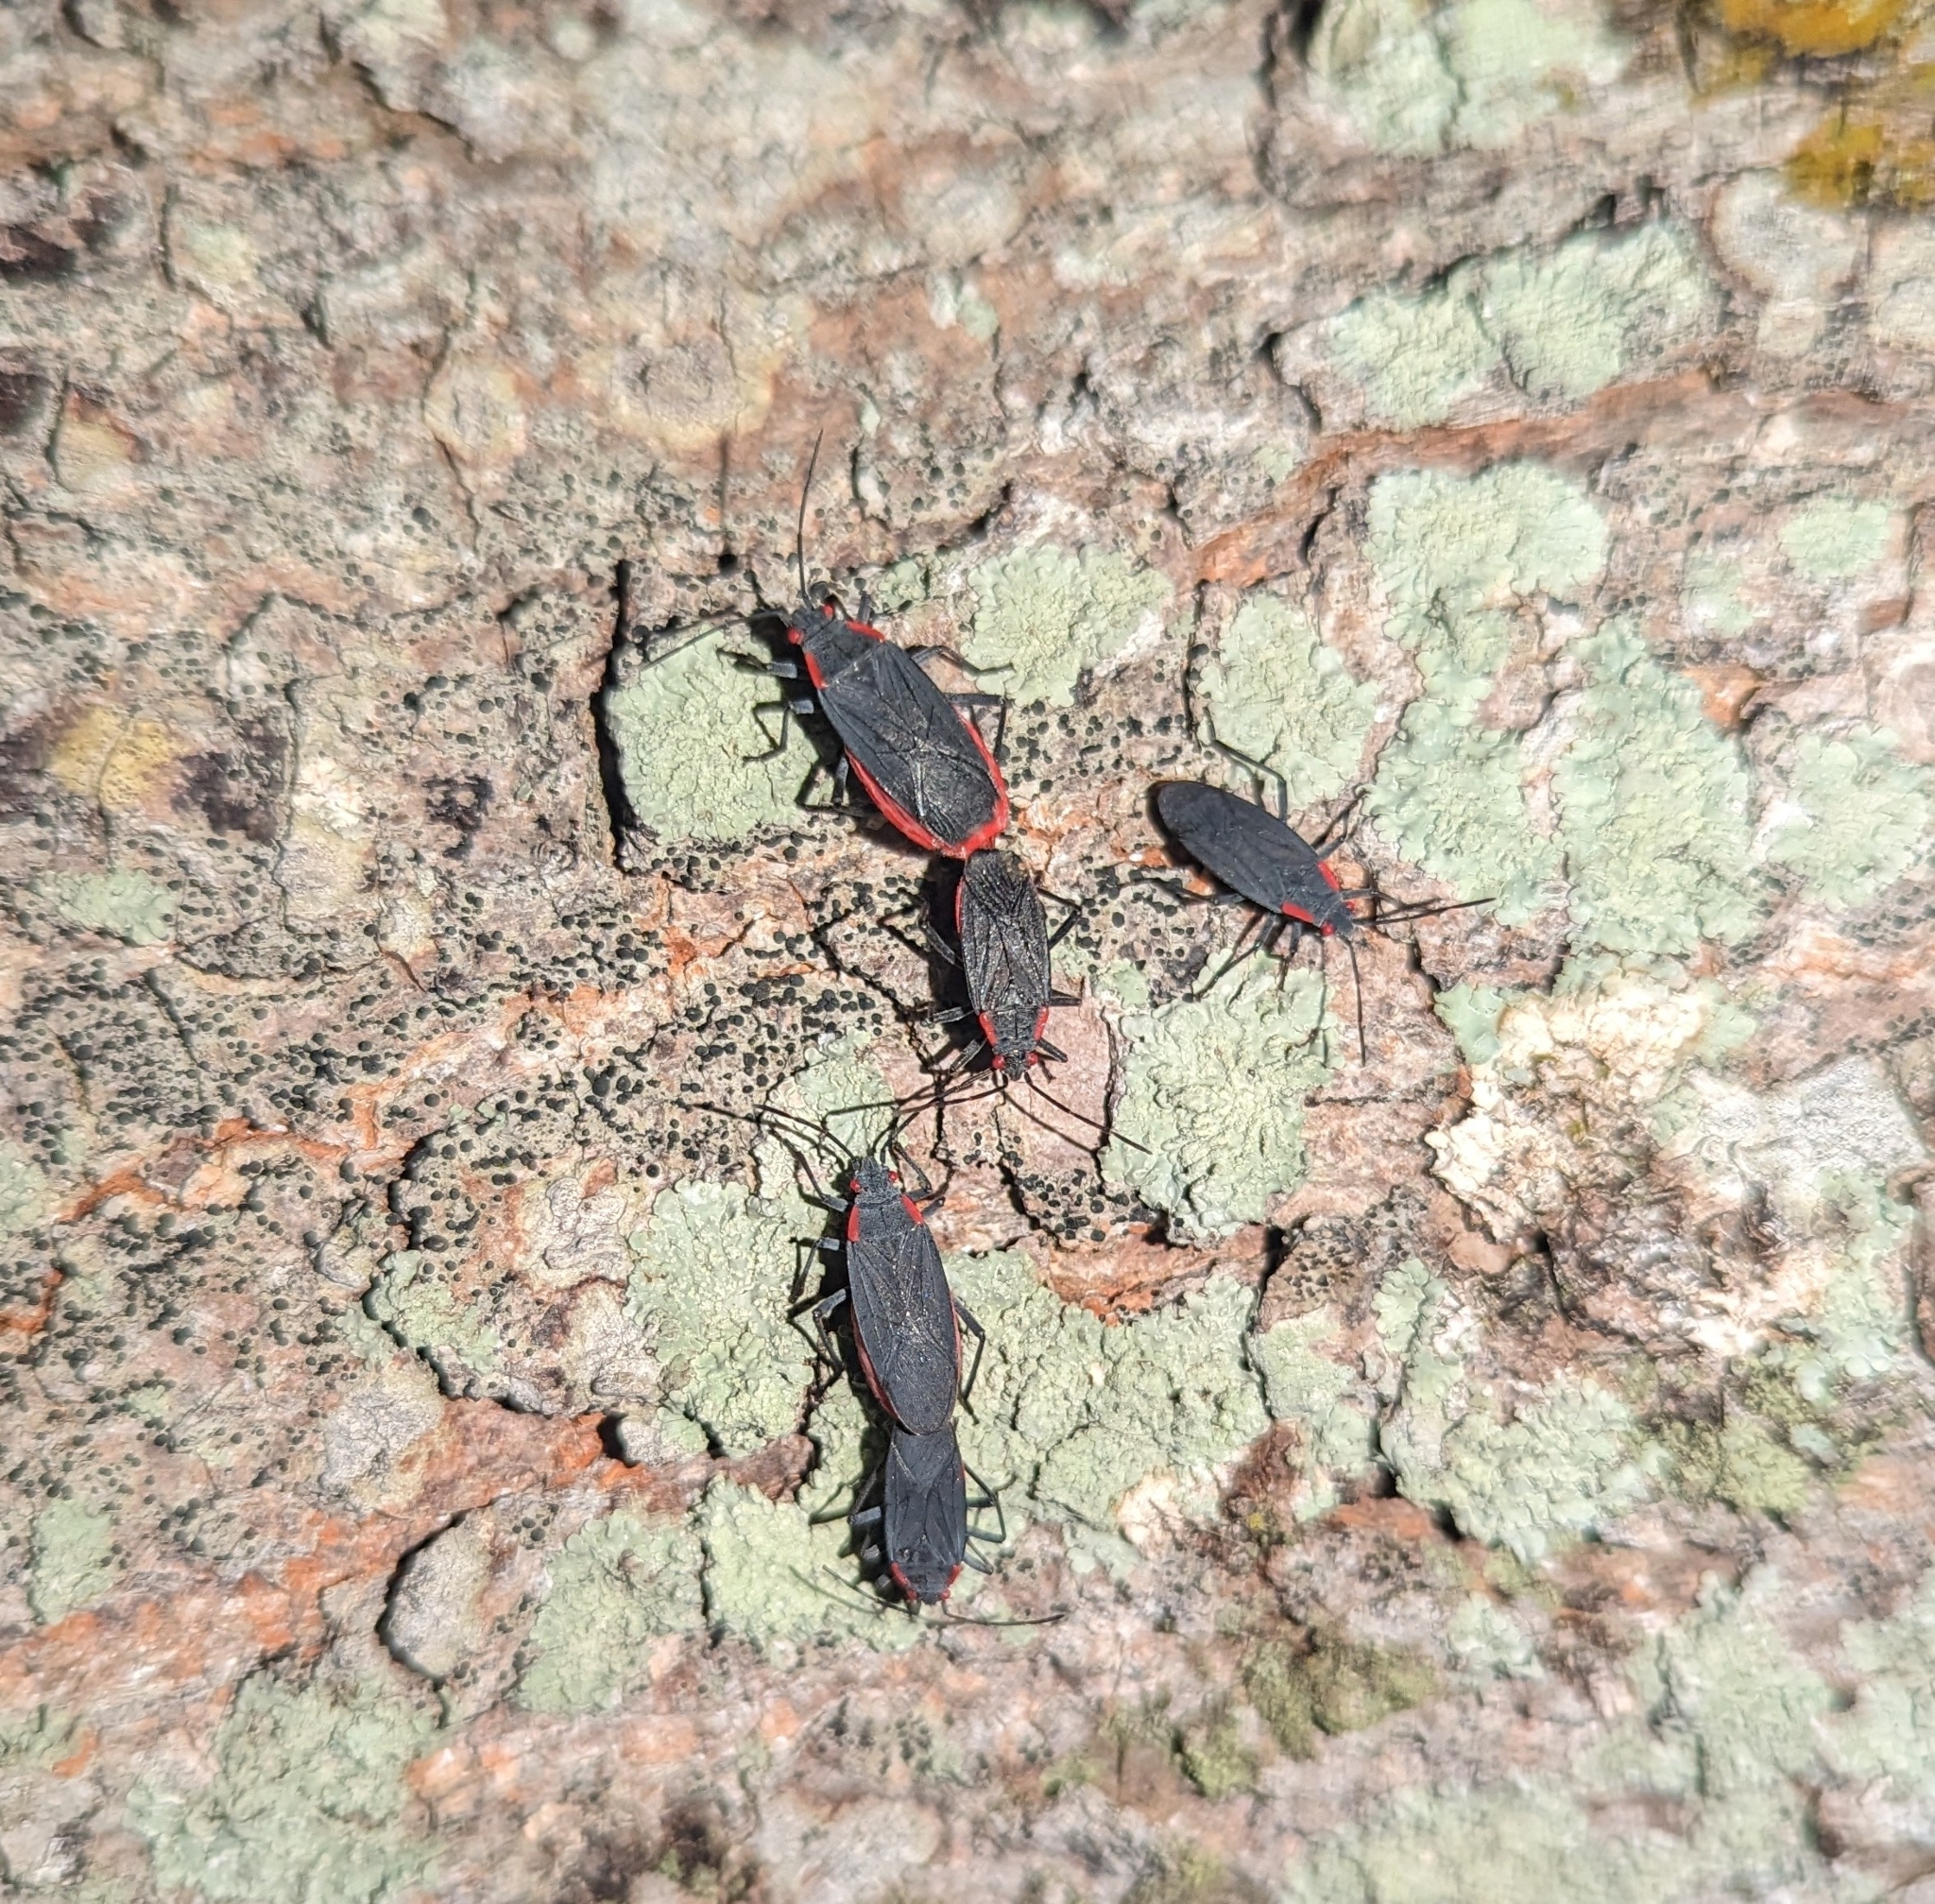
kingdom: Animalia
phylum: Arthropoda
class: Insecta
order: Hemiptera
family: Rhopalidae
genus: Jadera
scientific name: Jadera haematoloma
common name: Red-shouldered bug
